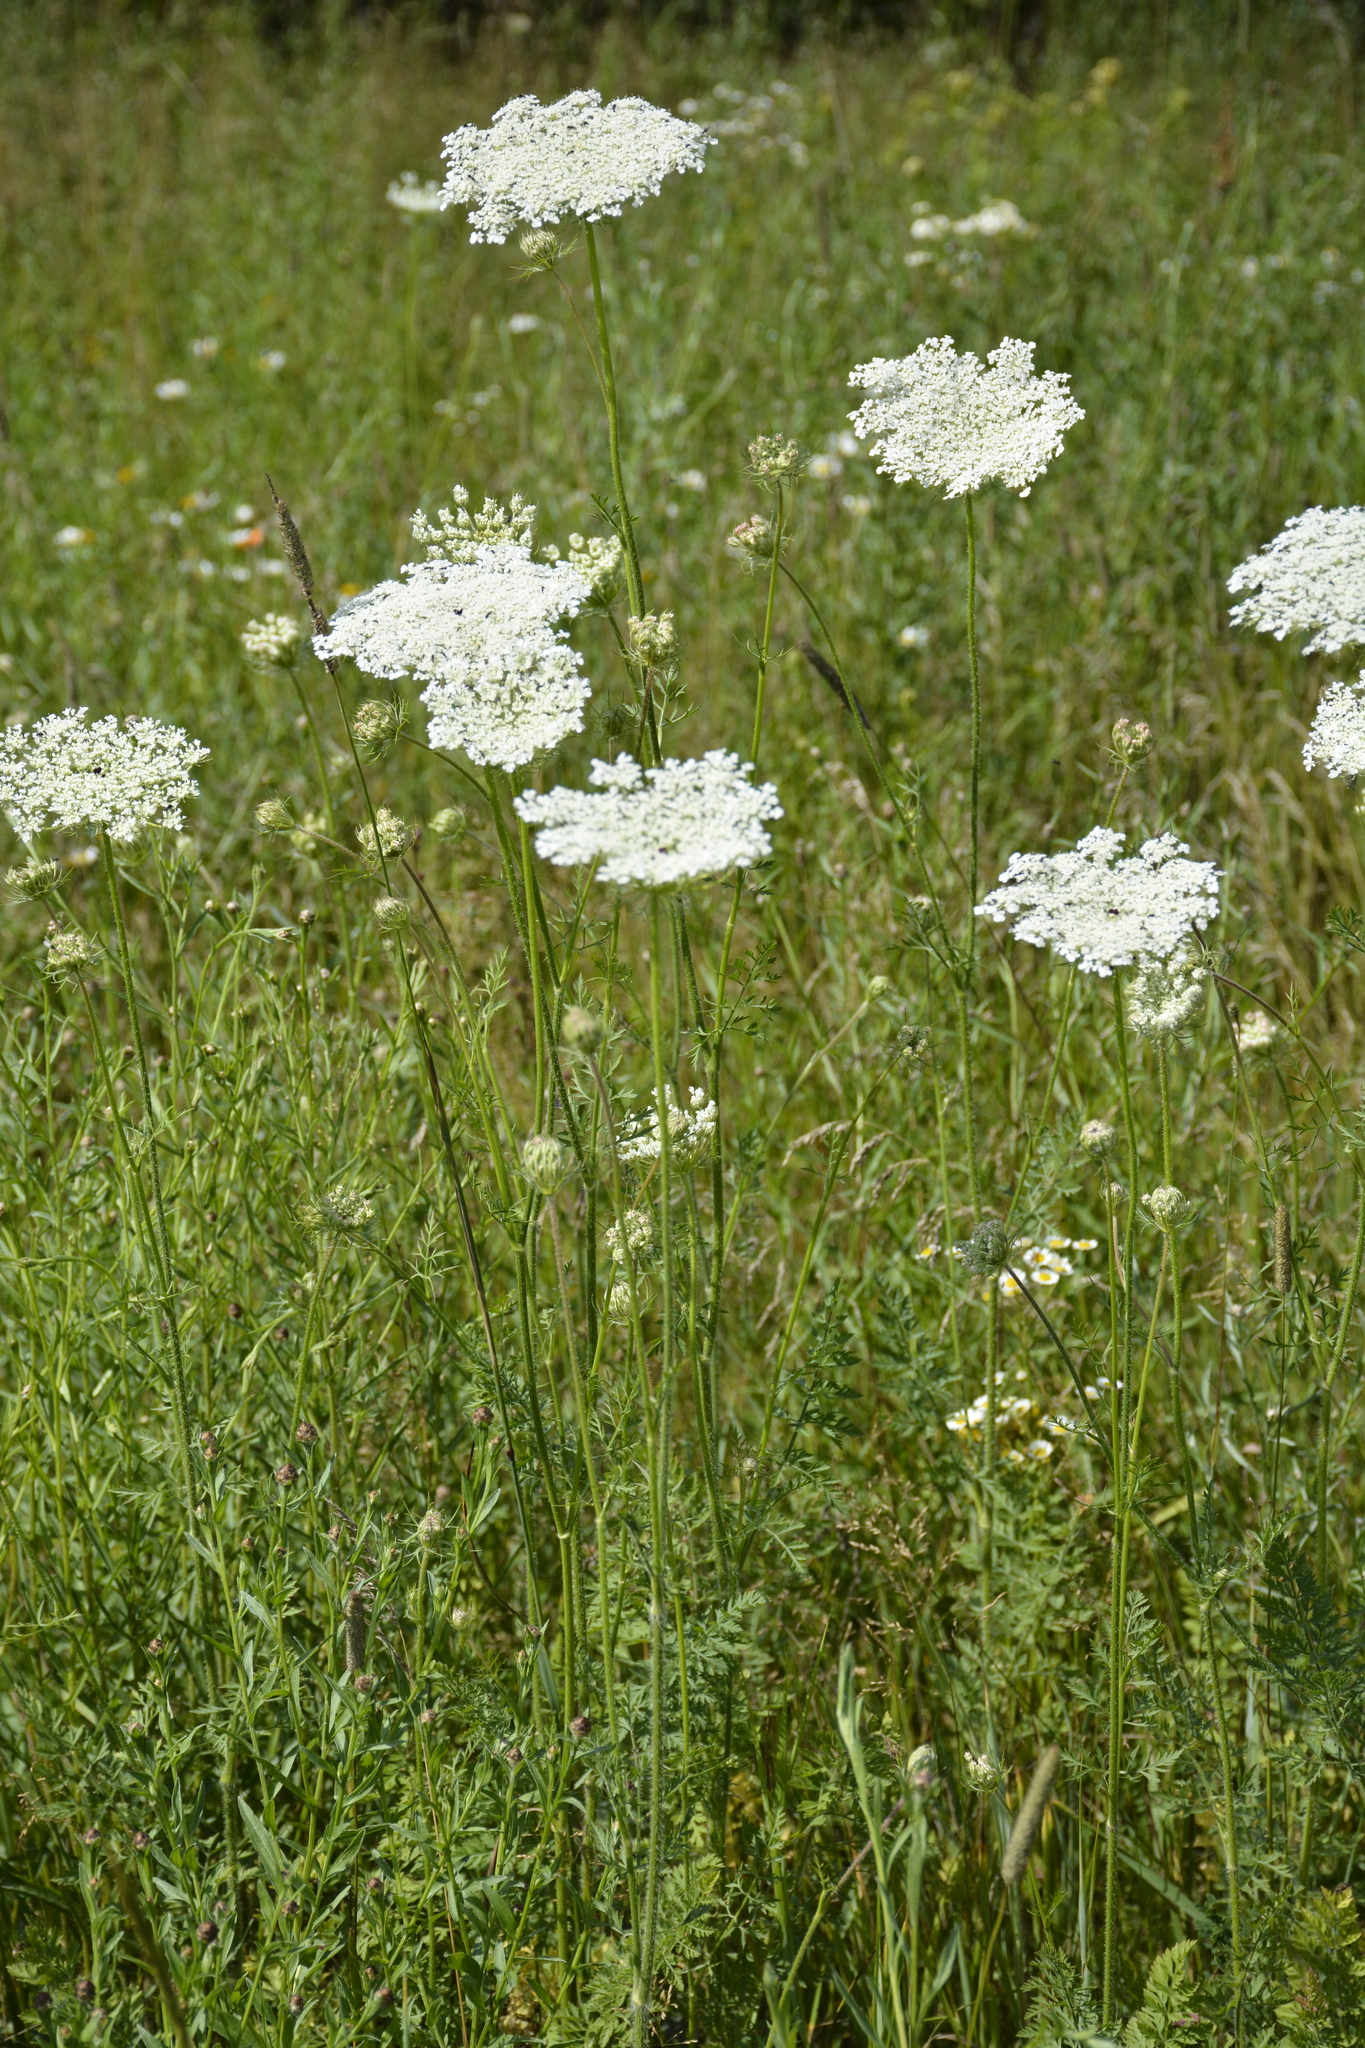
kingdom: Plantae
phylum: Tracheophyta
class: Magnoliopsida
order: Apiales
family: Apiaceae
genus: Daucus
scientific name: Daucus carota
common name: Wild carrot
